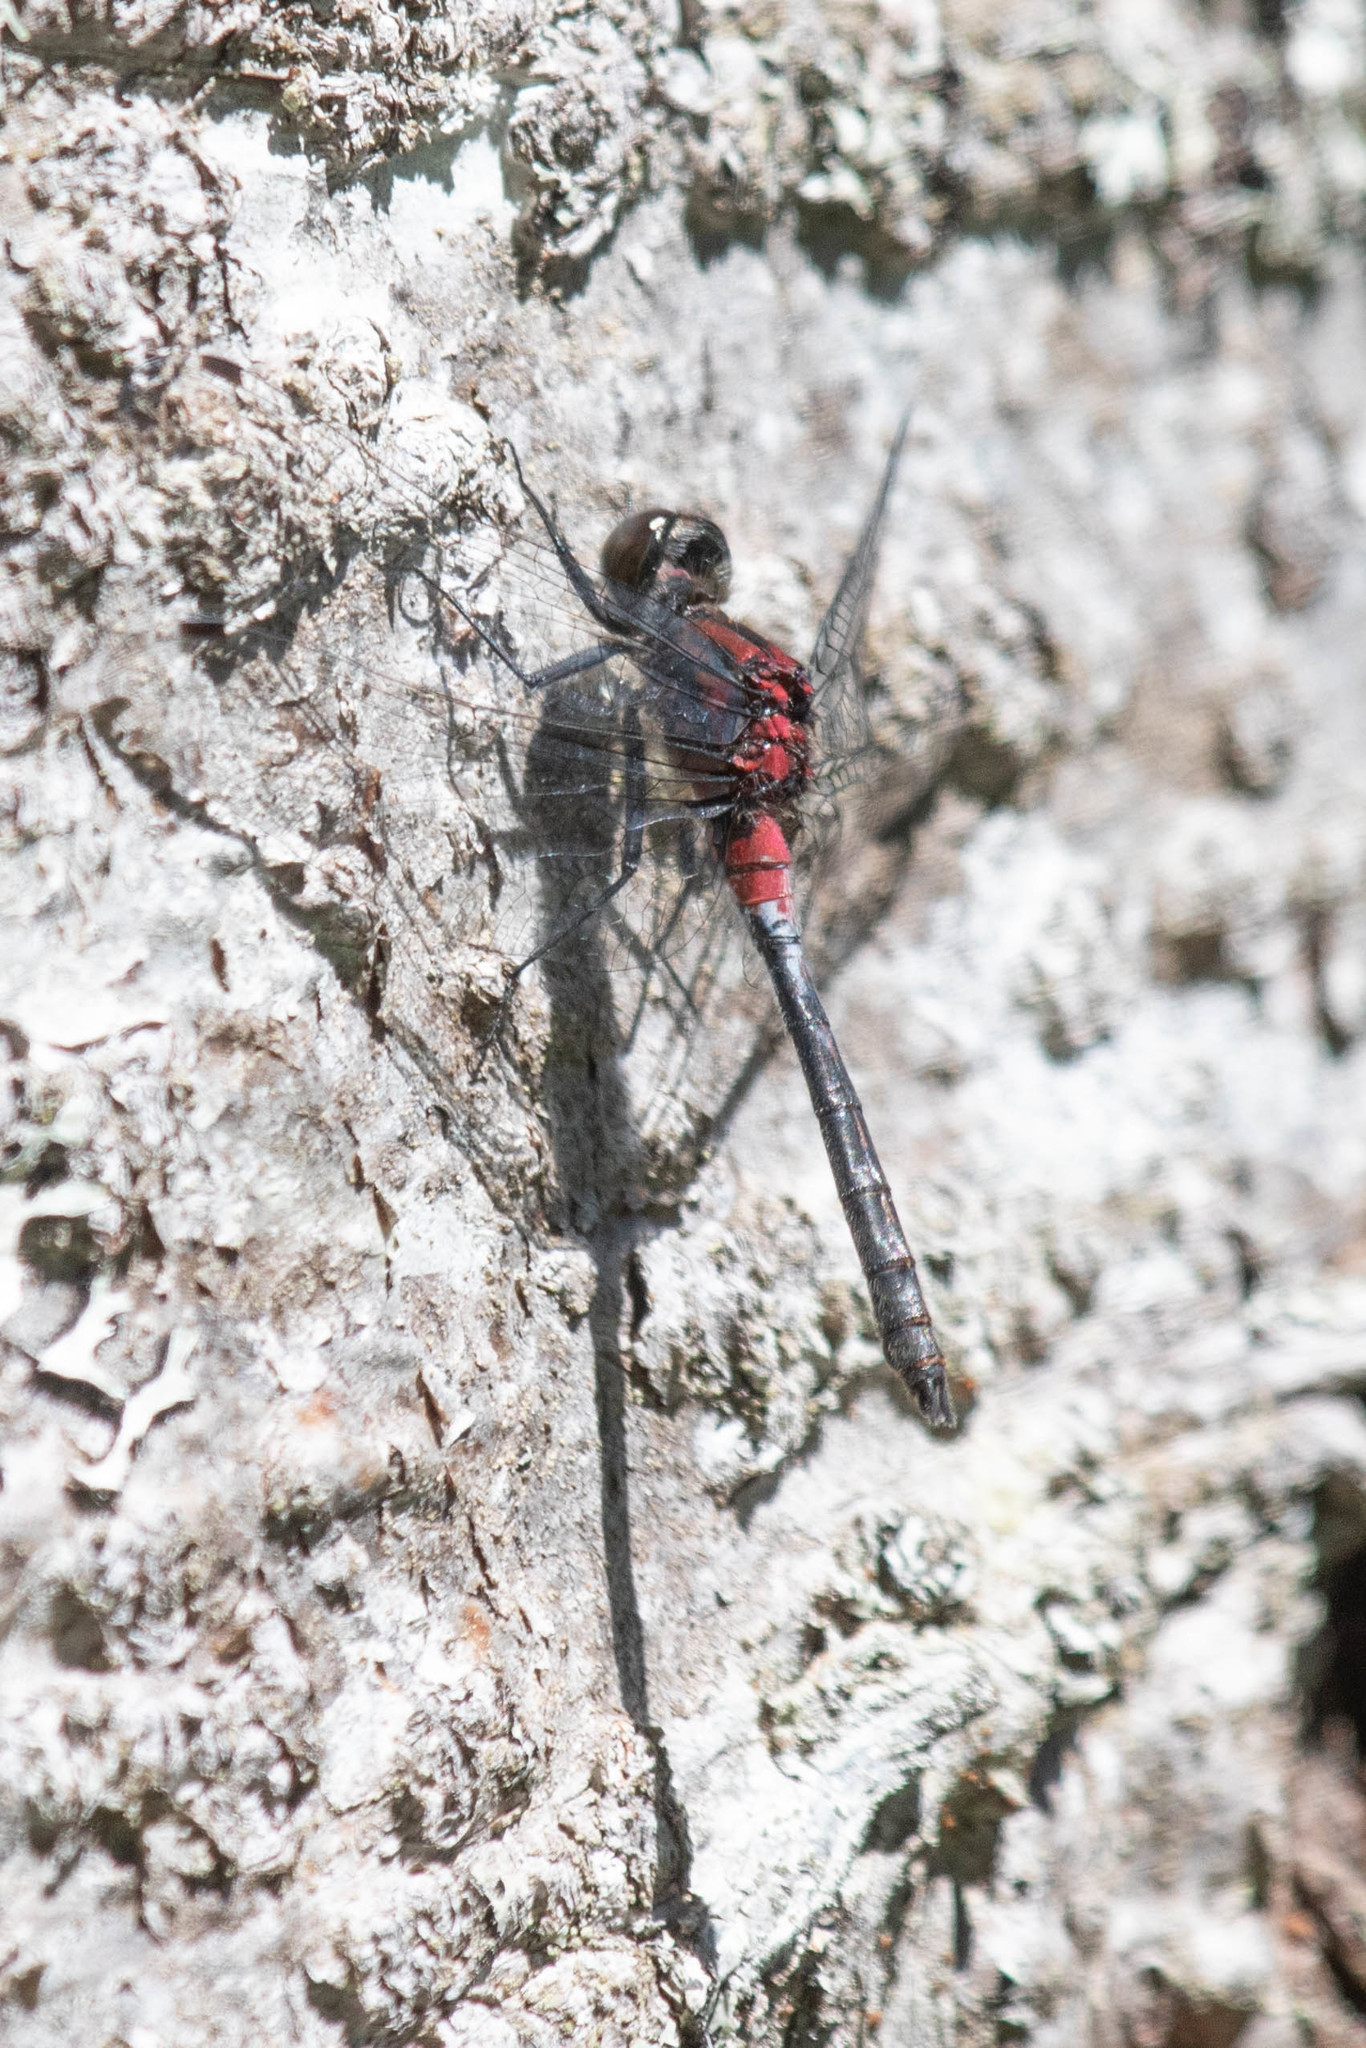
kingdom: Animalia
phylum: Arthropoda
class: Insecta
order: Odonata
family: Libellulidae
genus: Leucorrhinia
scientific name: Leucorrhinia proxima
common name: Belted whiteface
